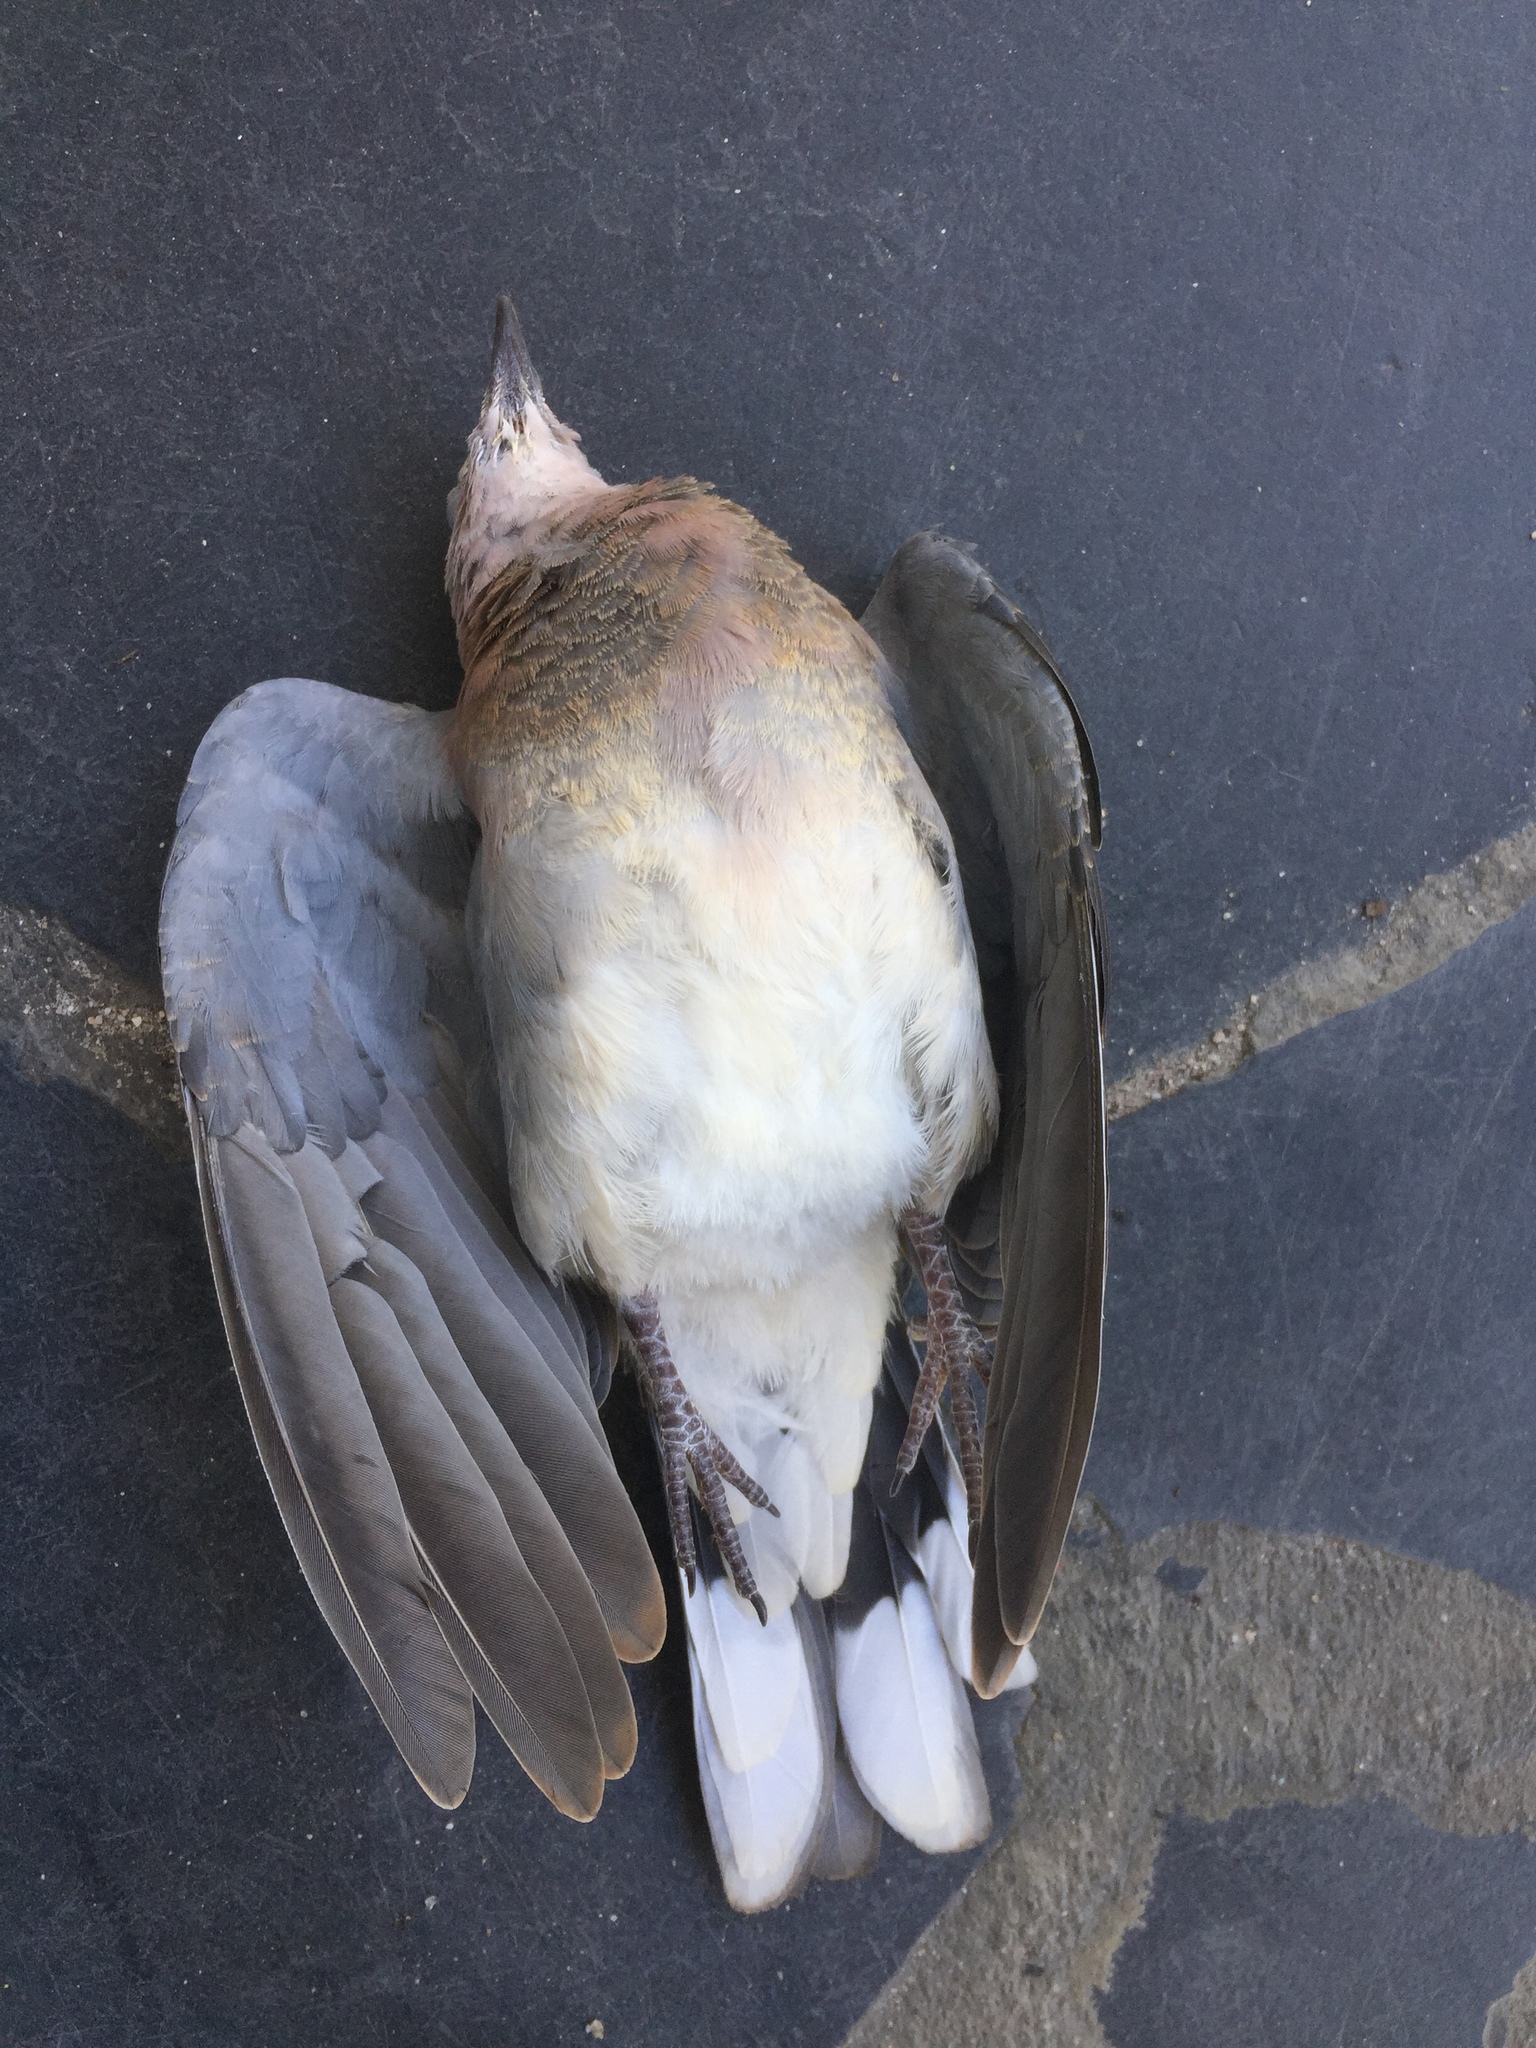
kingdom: Animalia
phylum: Chordata
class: Aves
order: Columbiformes
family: Columbidae
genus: Spilopelia
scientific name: Spilopelia senegalensis
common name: Laughing dove
